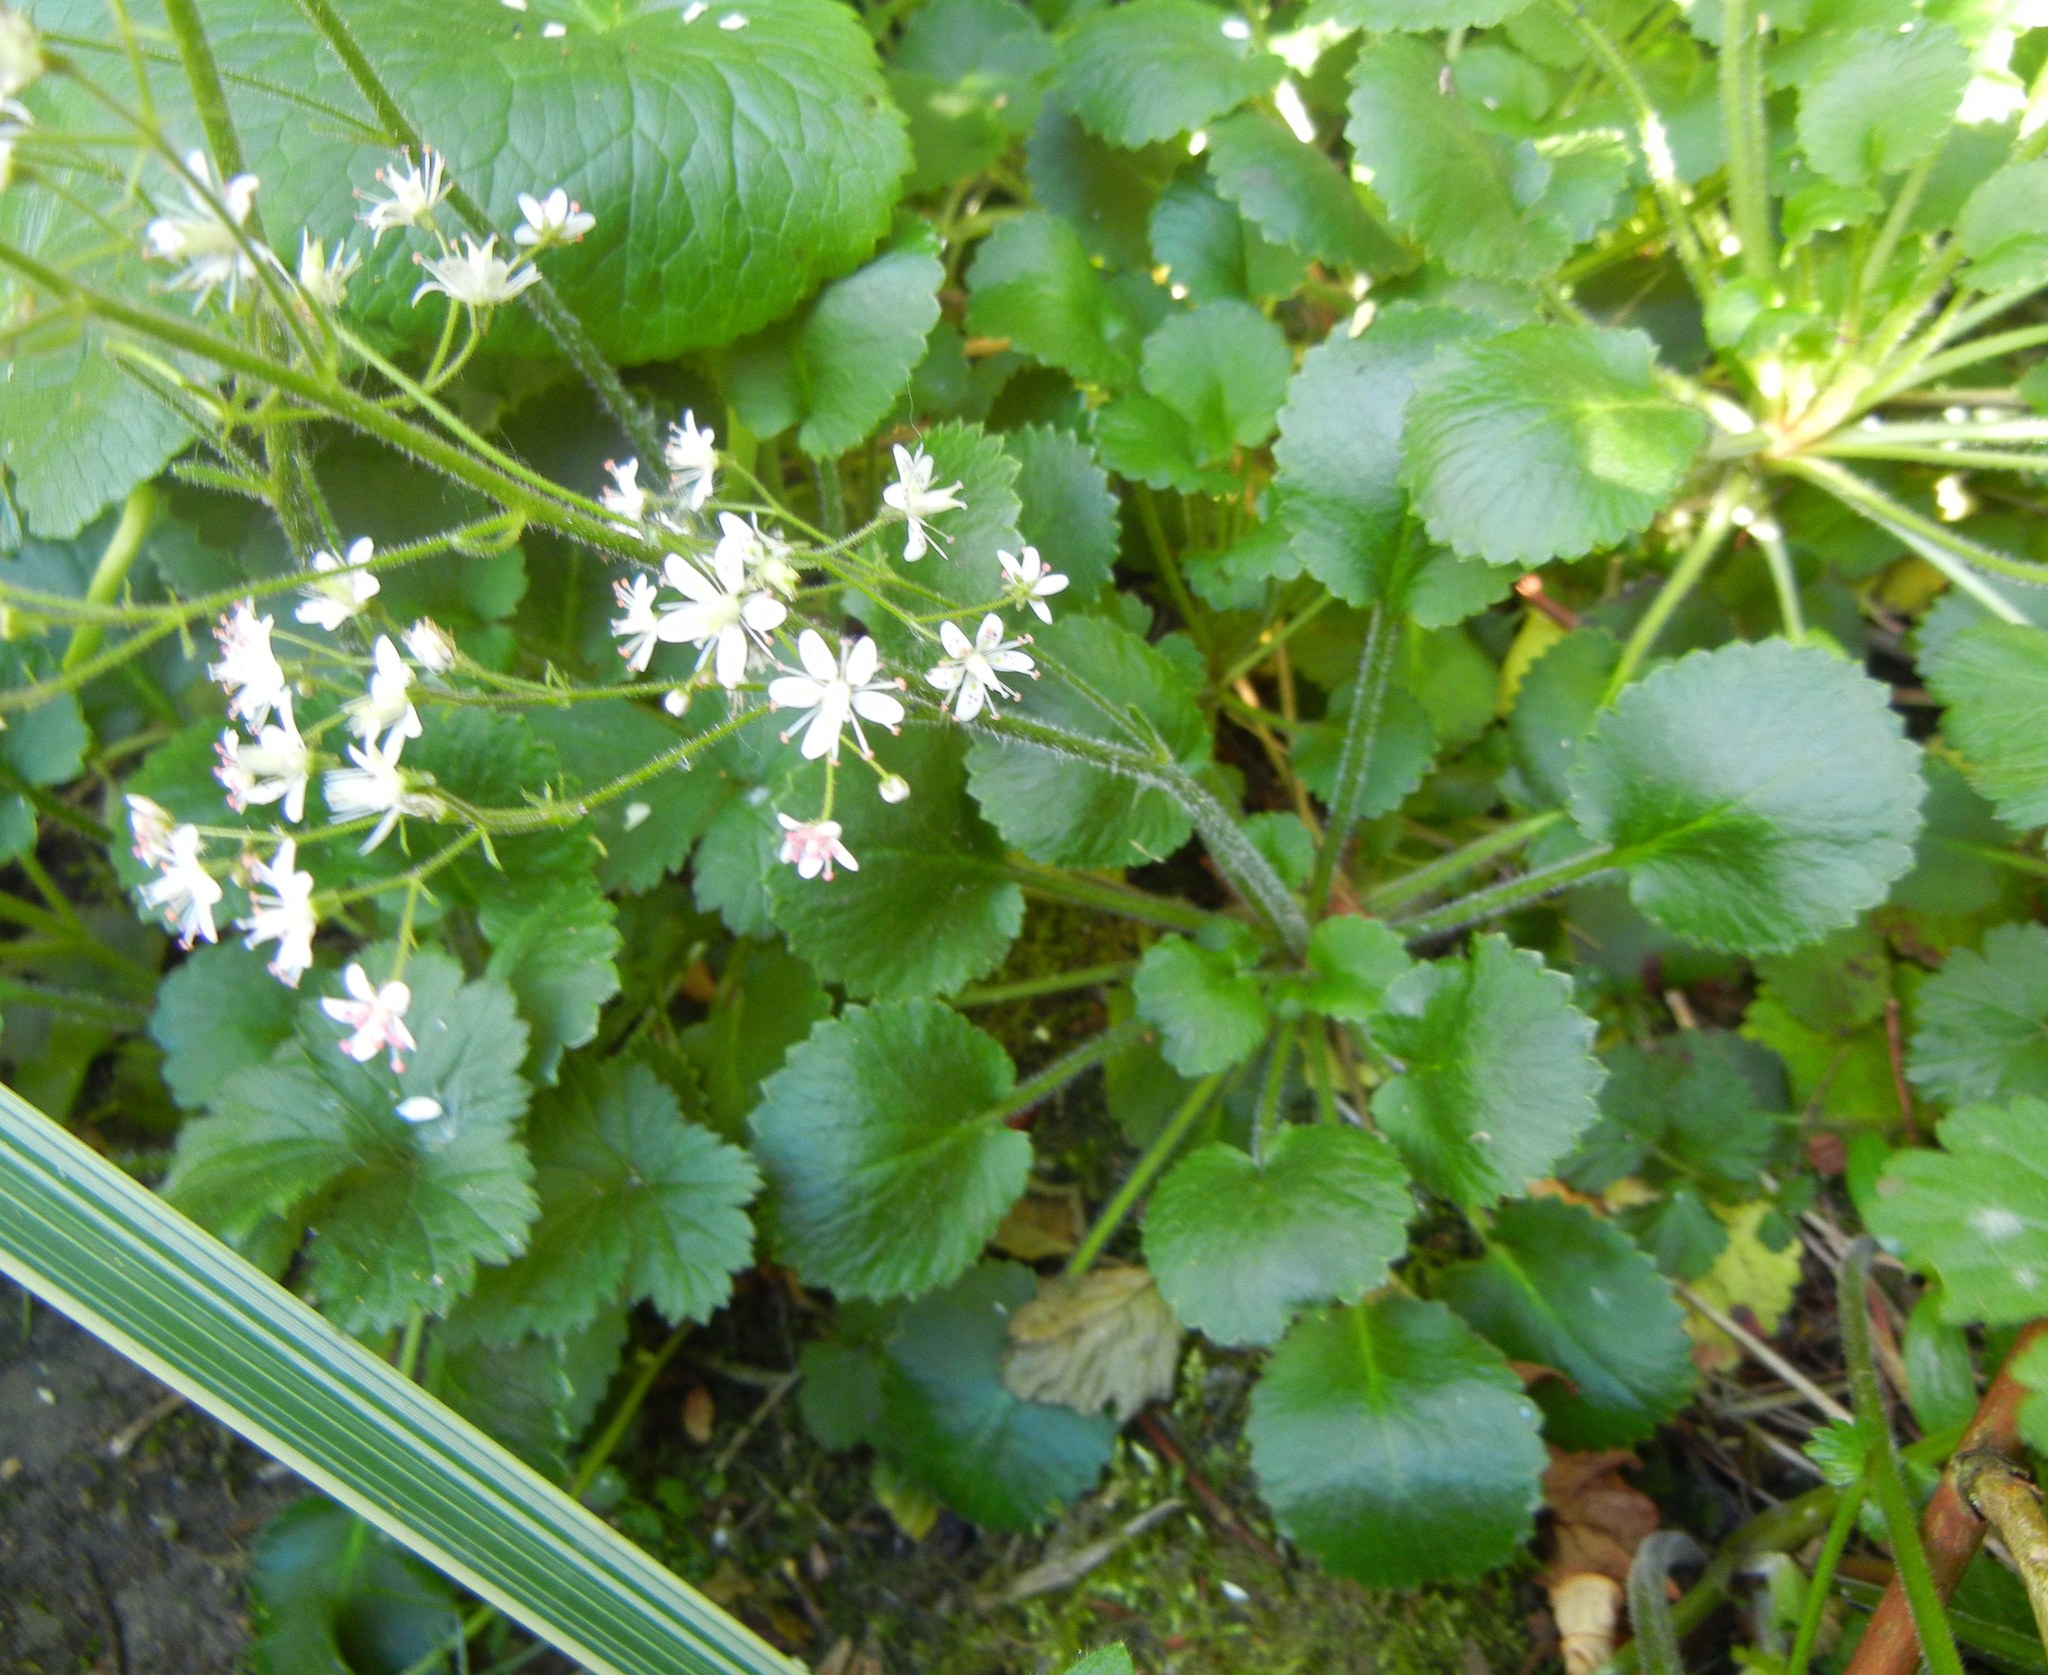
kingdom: Plantae
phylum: Tracheophyta
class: Magnoliopsida
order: Saxifragales
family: Saxifragaceae
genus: Saxifraga
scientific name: Saxifraga urbium
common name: Londonpride
